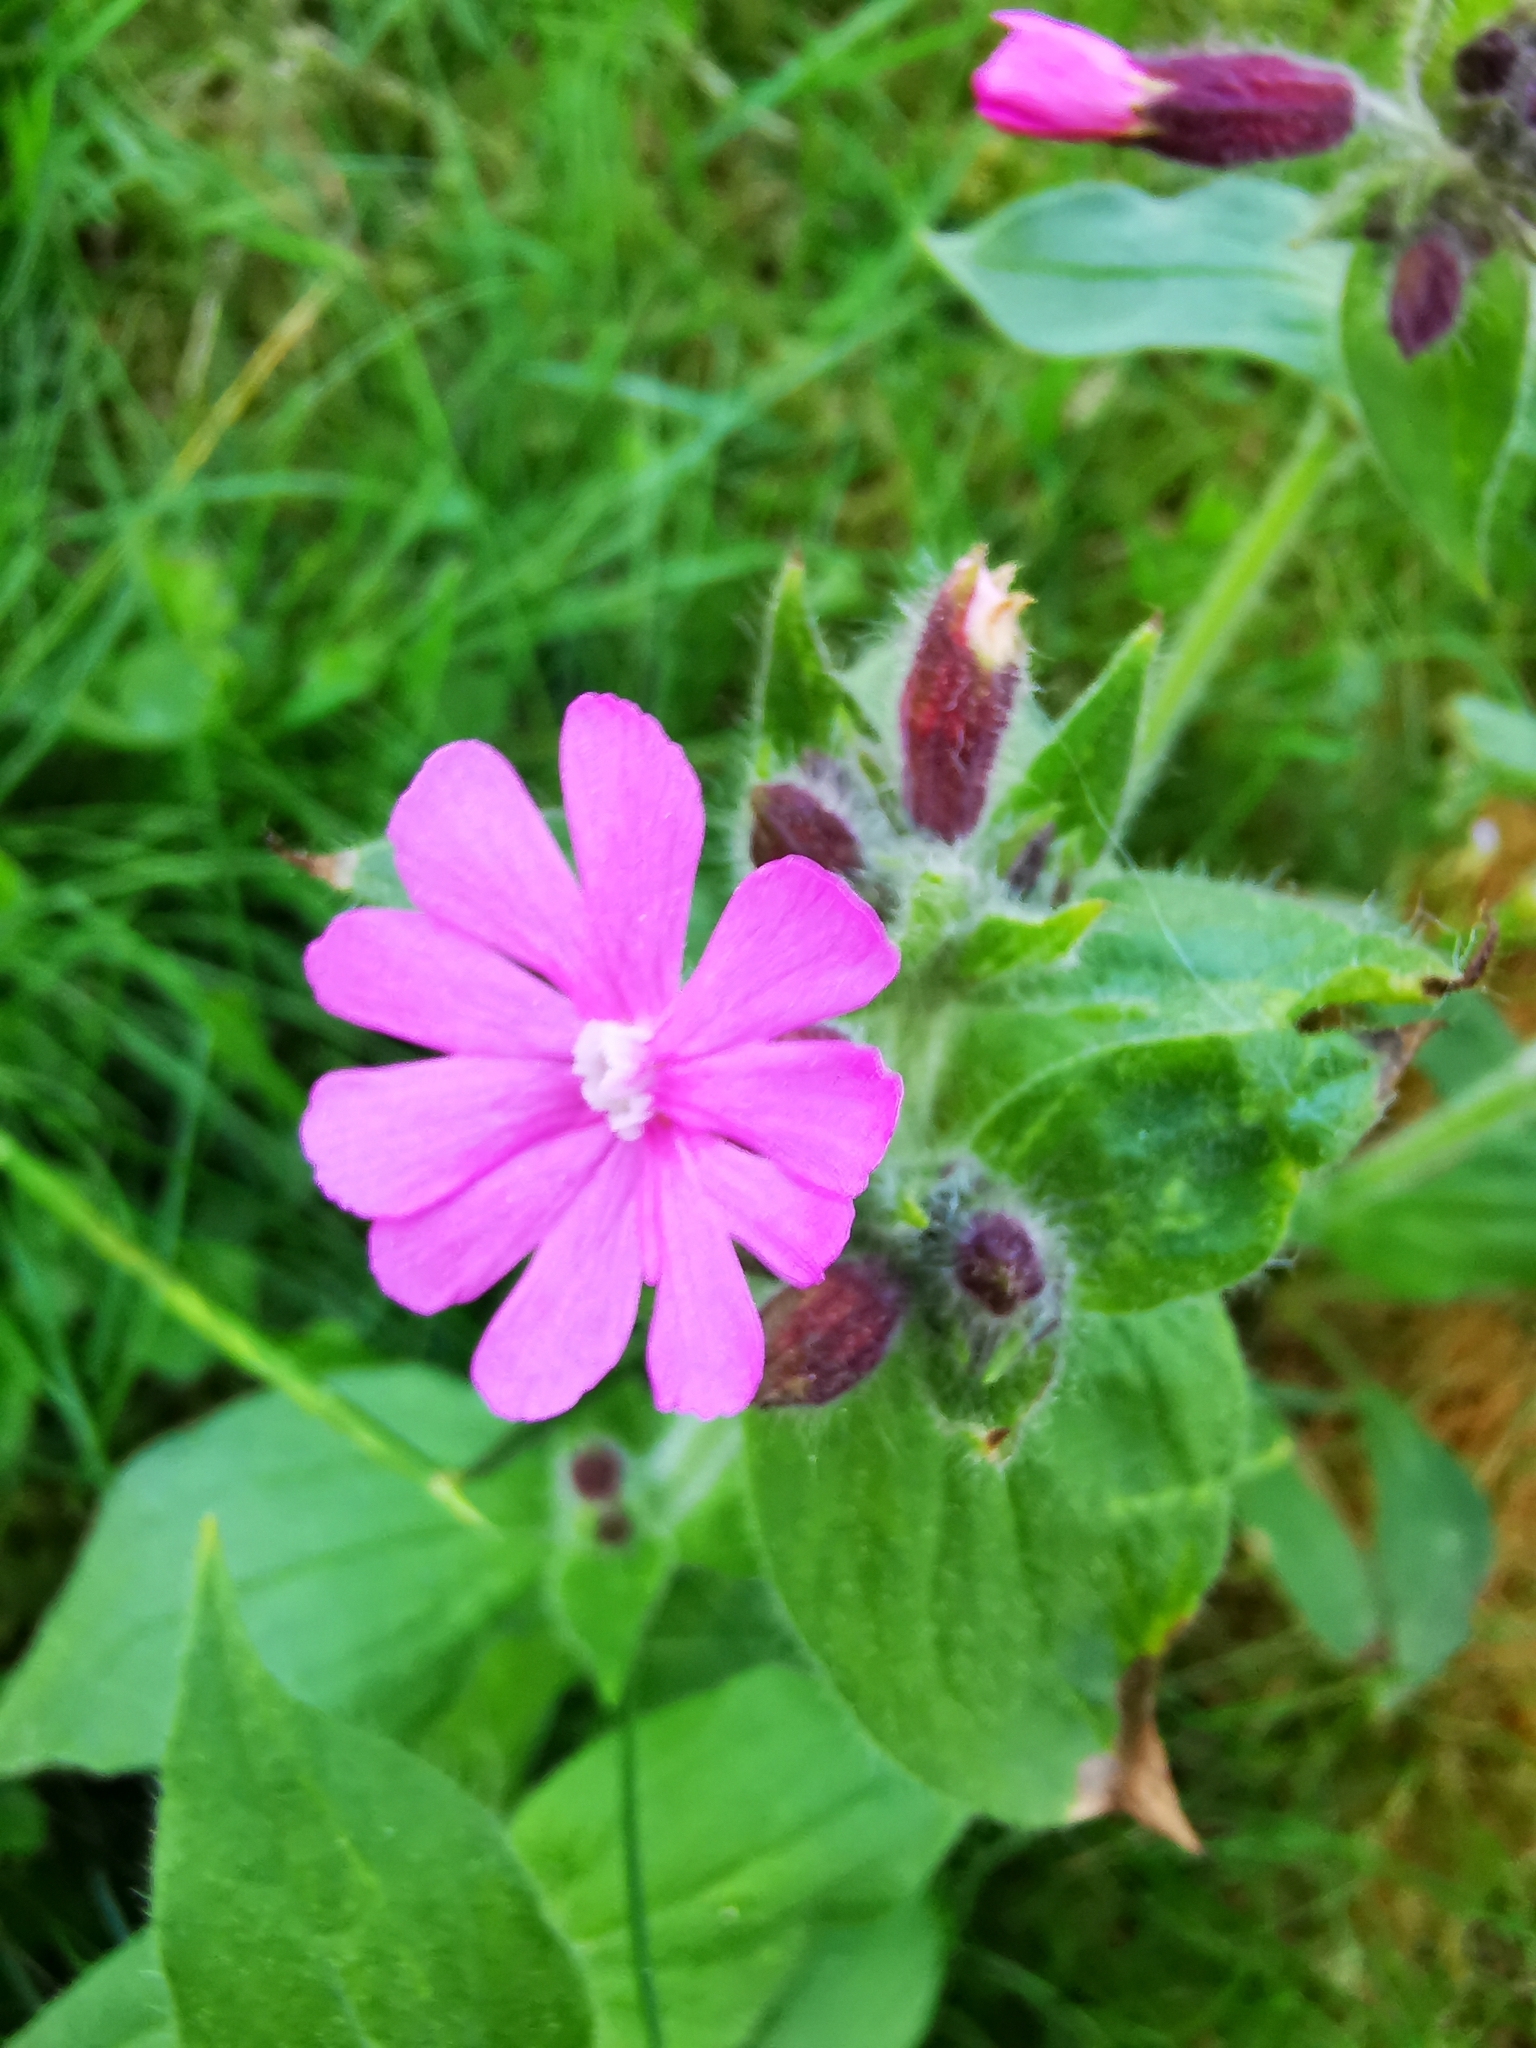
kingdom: Plantae
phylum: Tracheophyta
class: Magnoliopsida
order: Caryophyllales
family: Caryophyllaceae
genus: Silene
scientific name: Silene dioica
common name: Red campion
